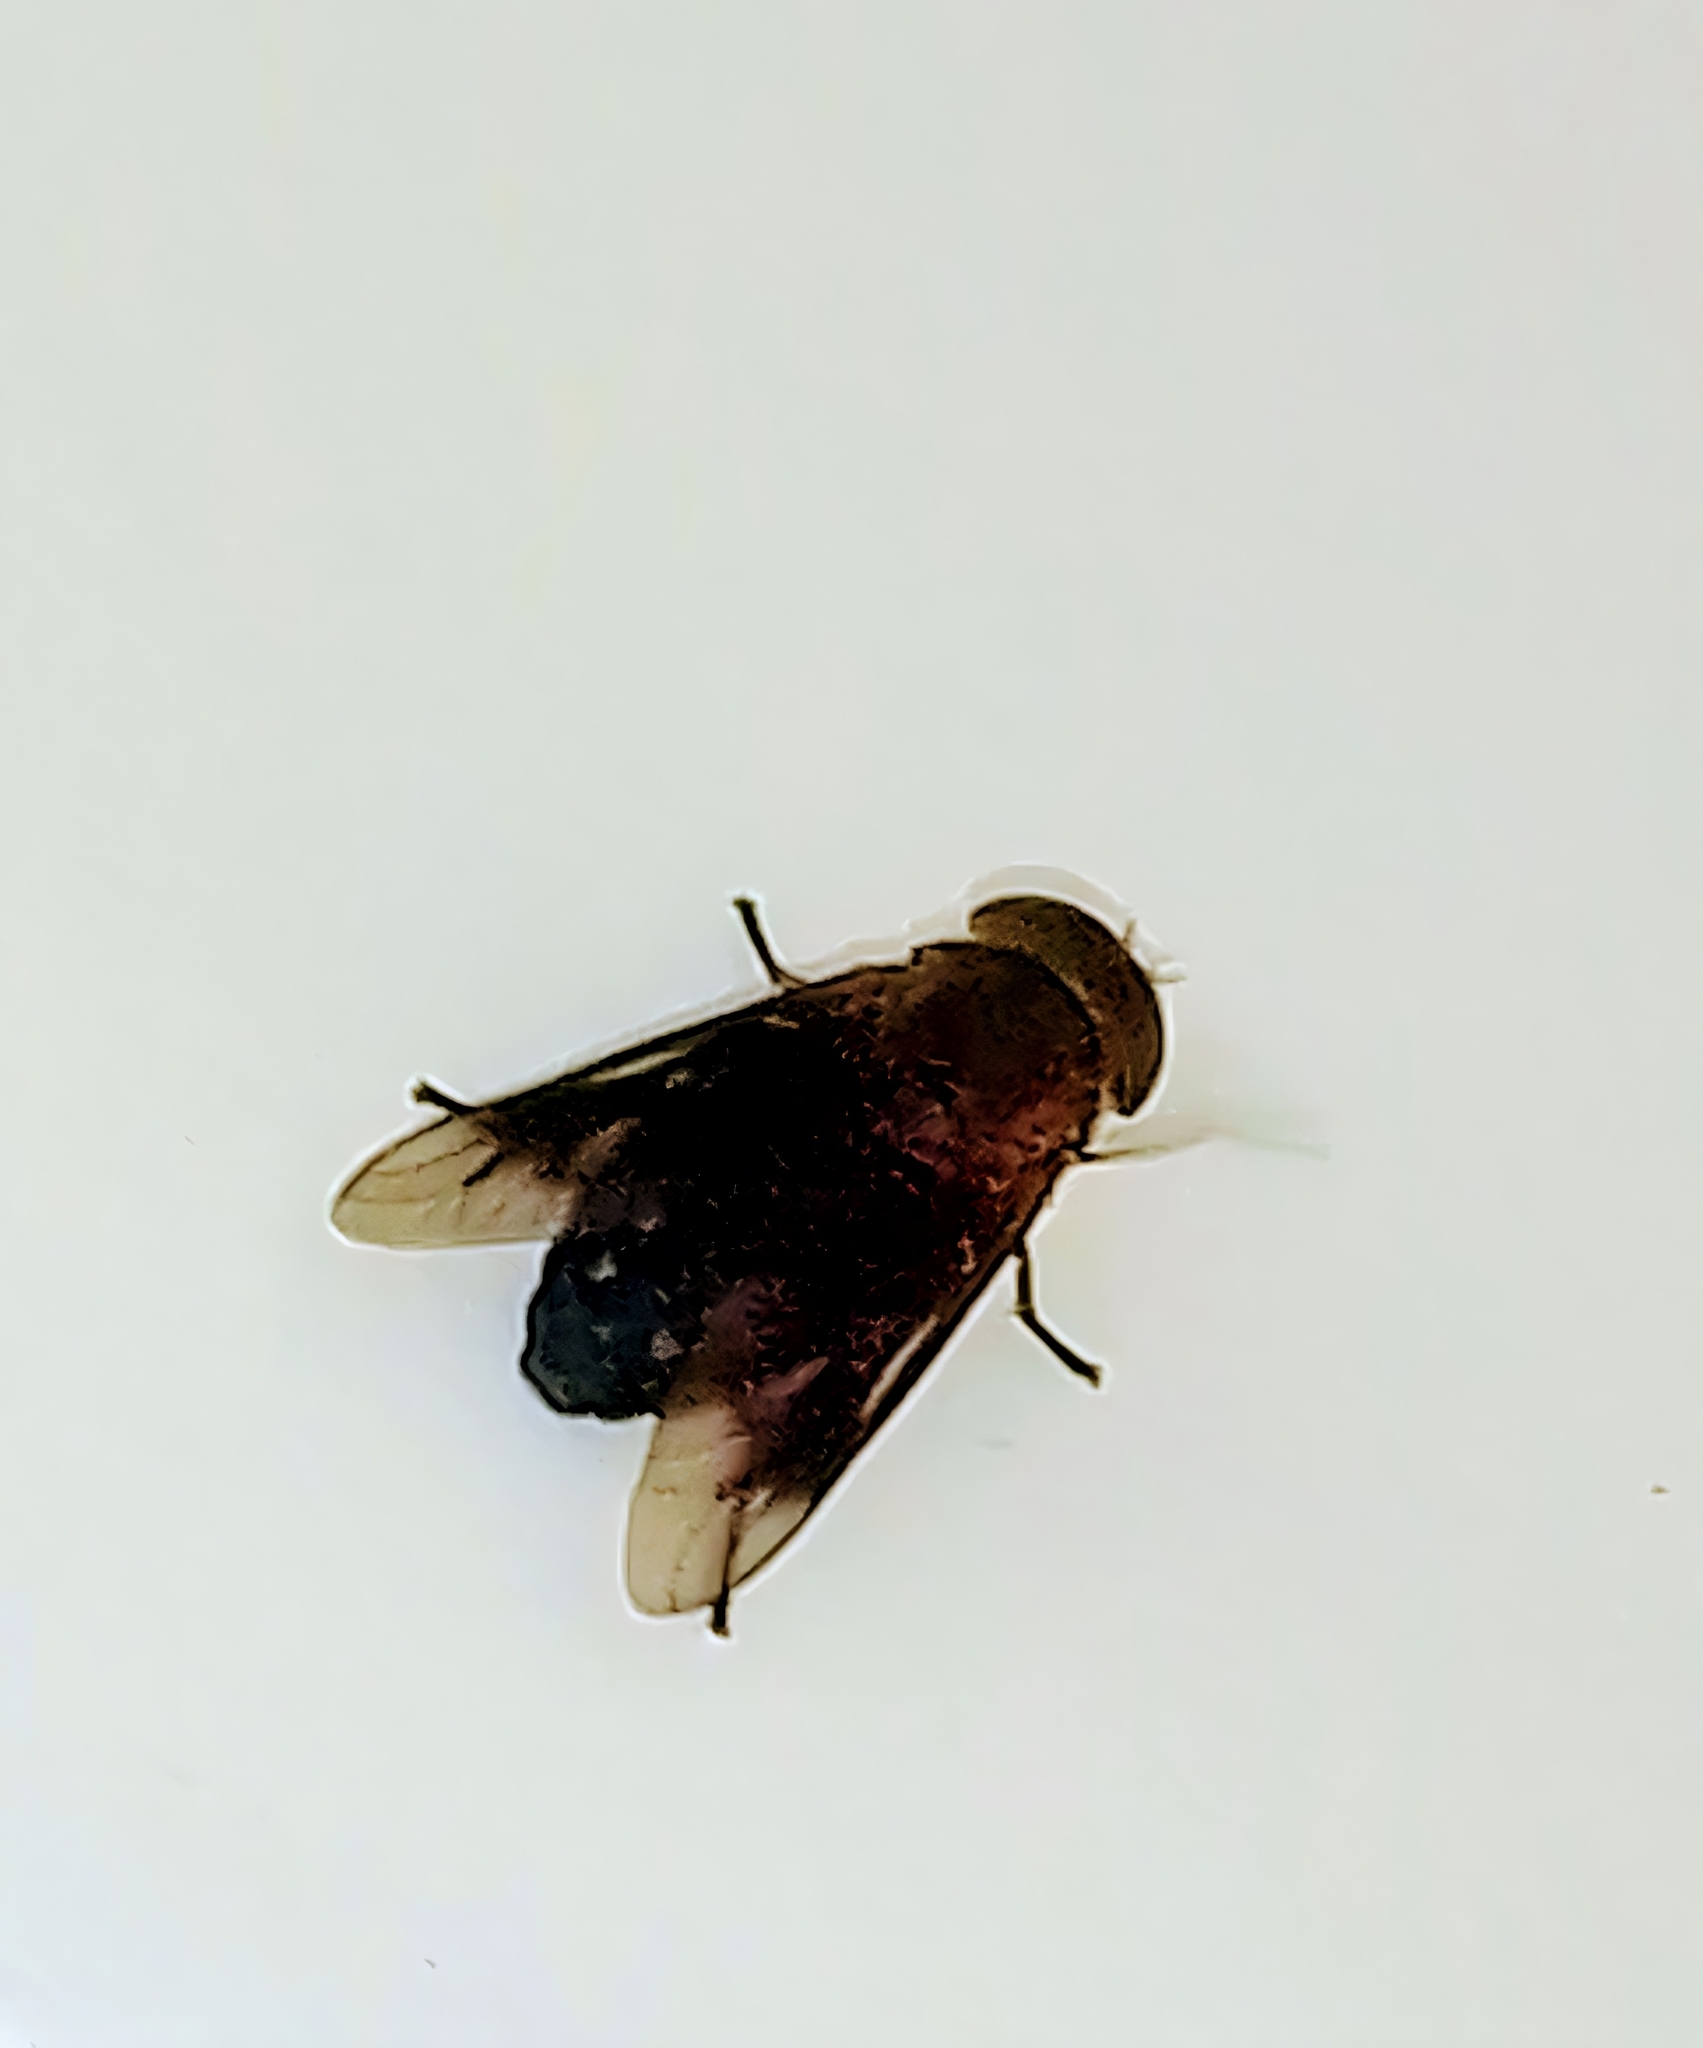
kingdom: Animalia
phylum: Arthropoda
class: Insecta
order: Diptera
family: Tabanidae
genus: Tabanus
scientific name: Tabanus discifer
